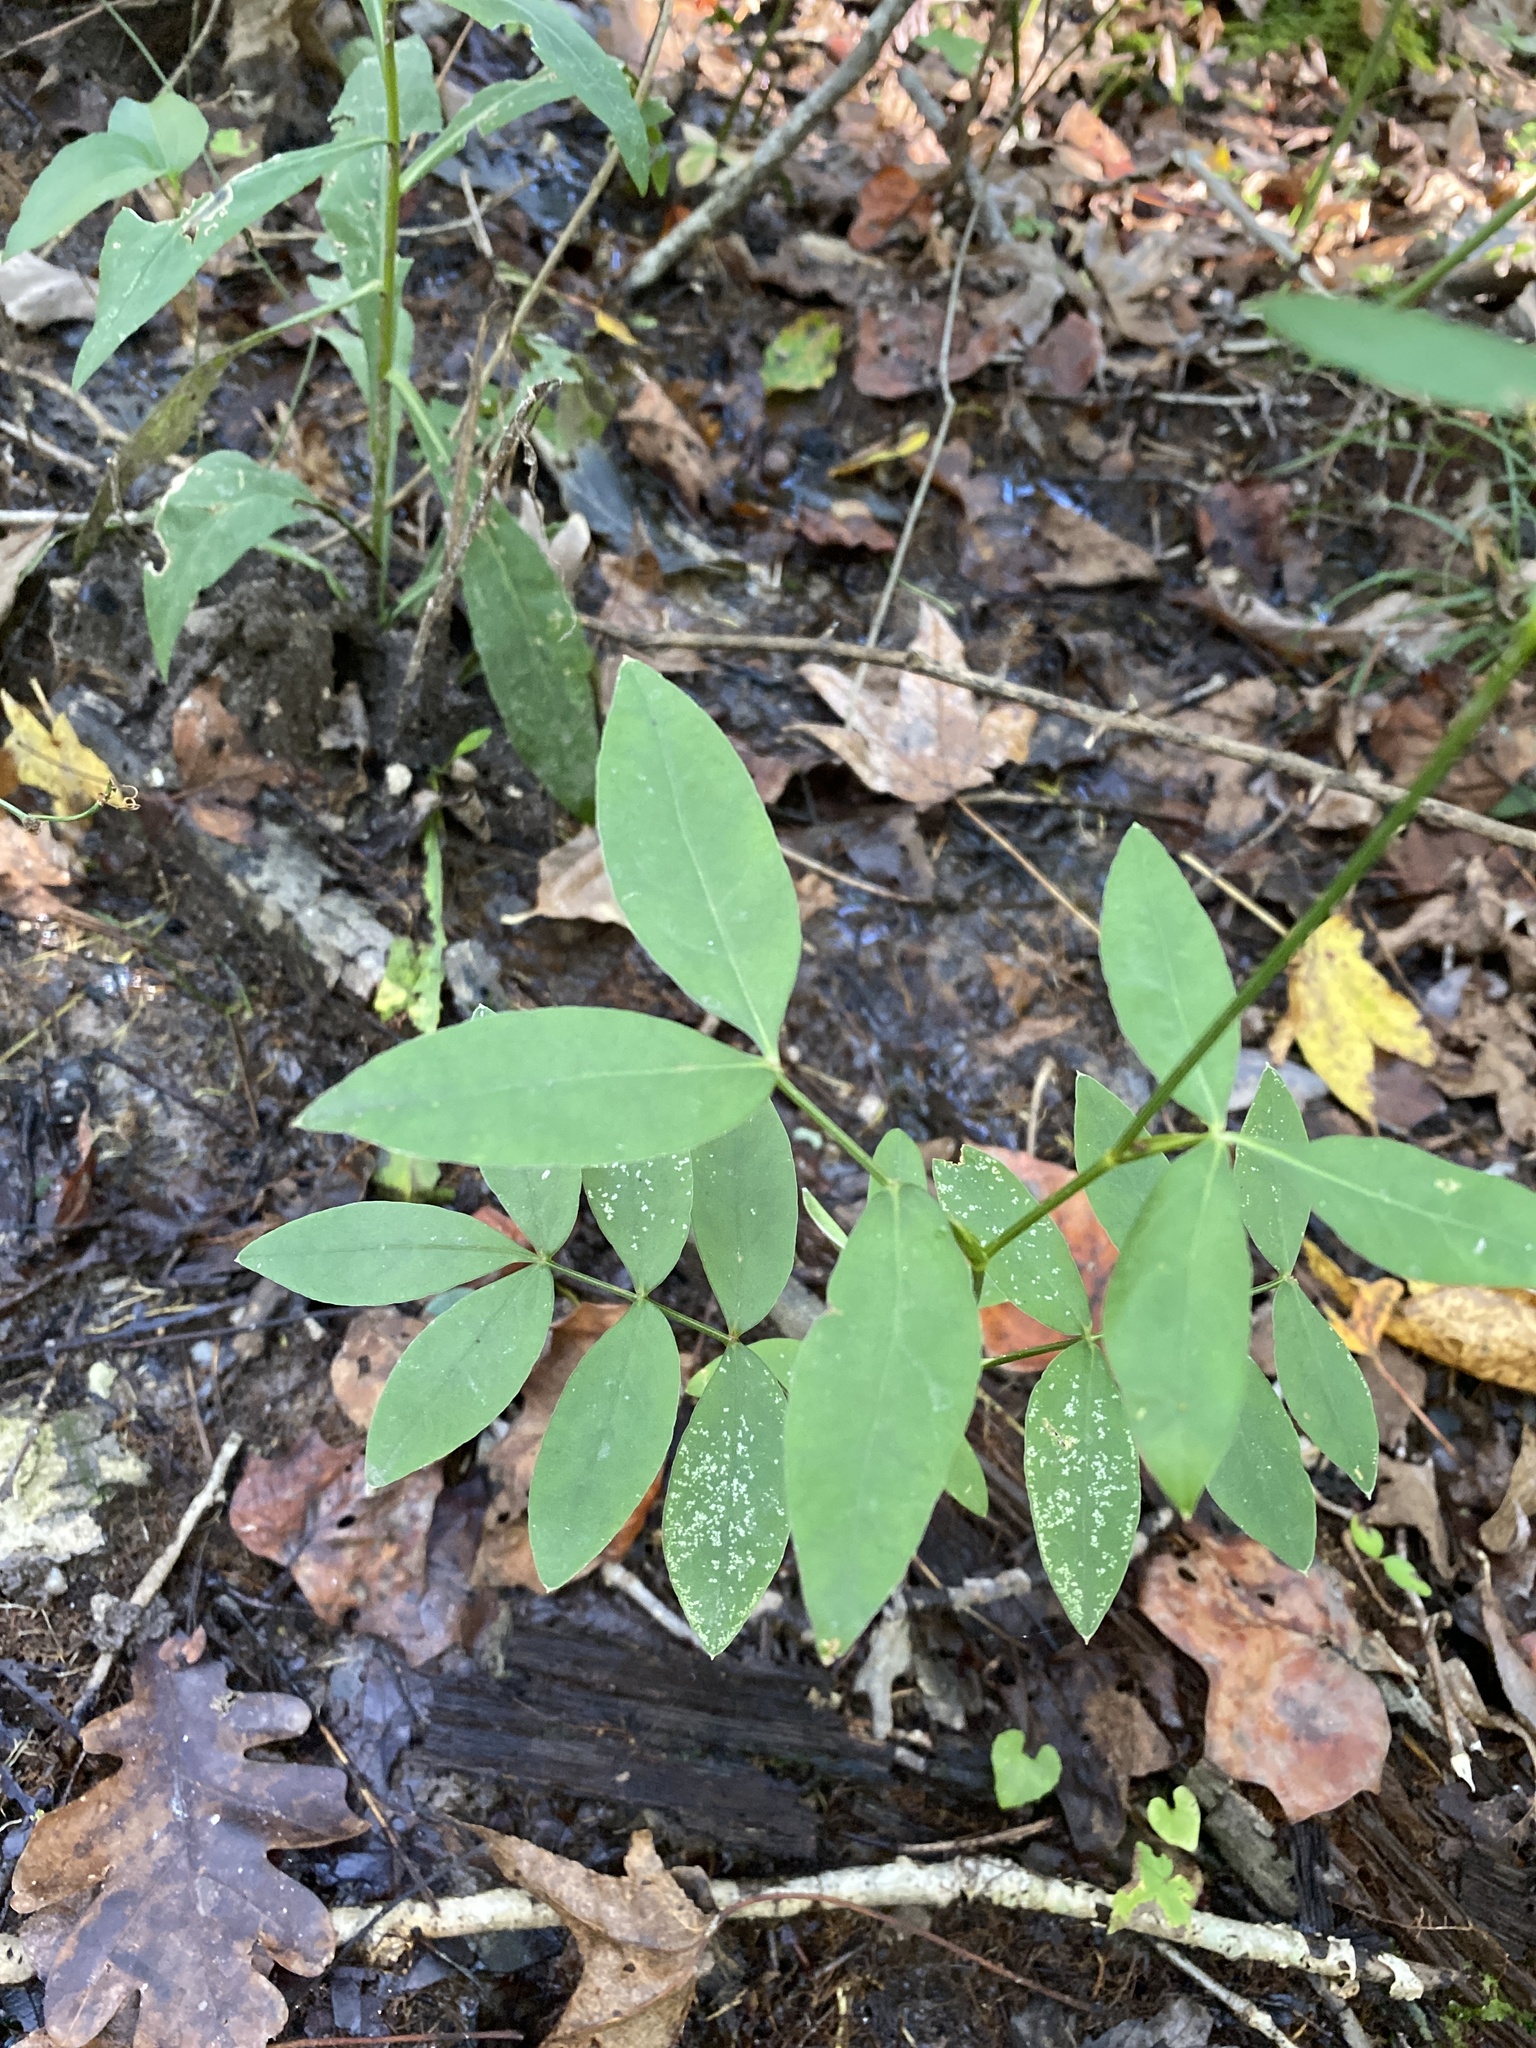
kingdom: Plantae
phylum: Tracheophyta
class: Magnoliopsida
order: Apiales
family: Apiaceae
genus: Oxypolis
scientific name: Oxypolis rigidior
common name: Cowbane
